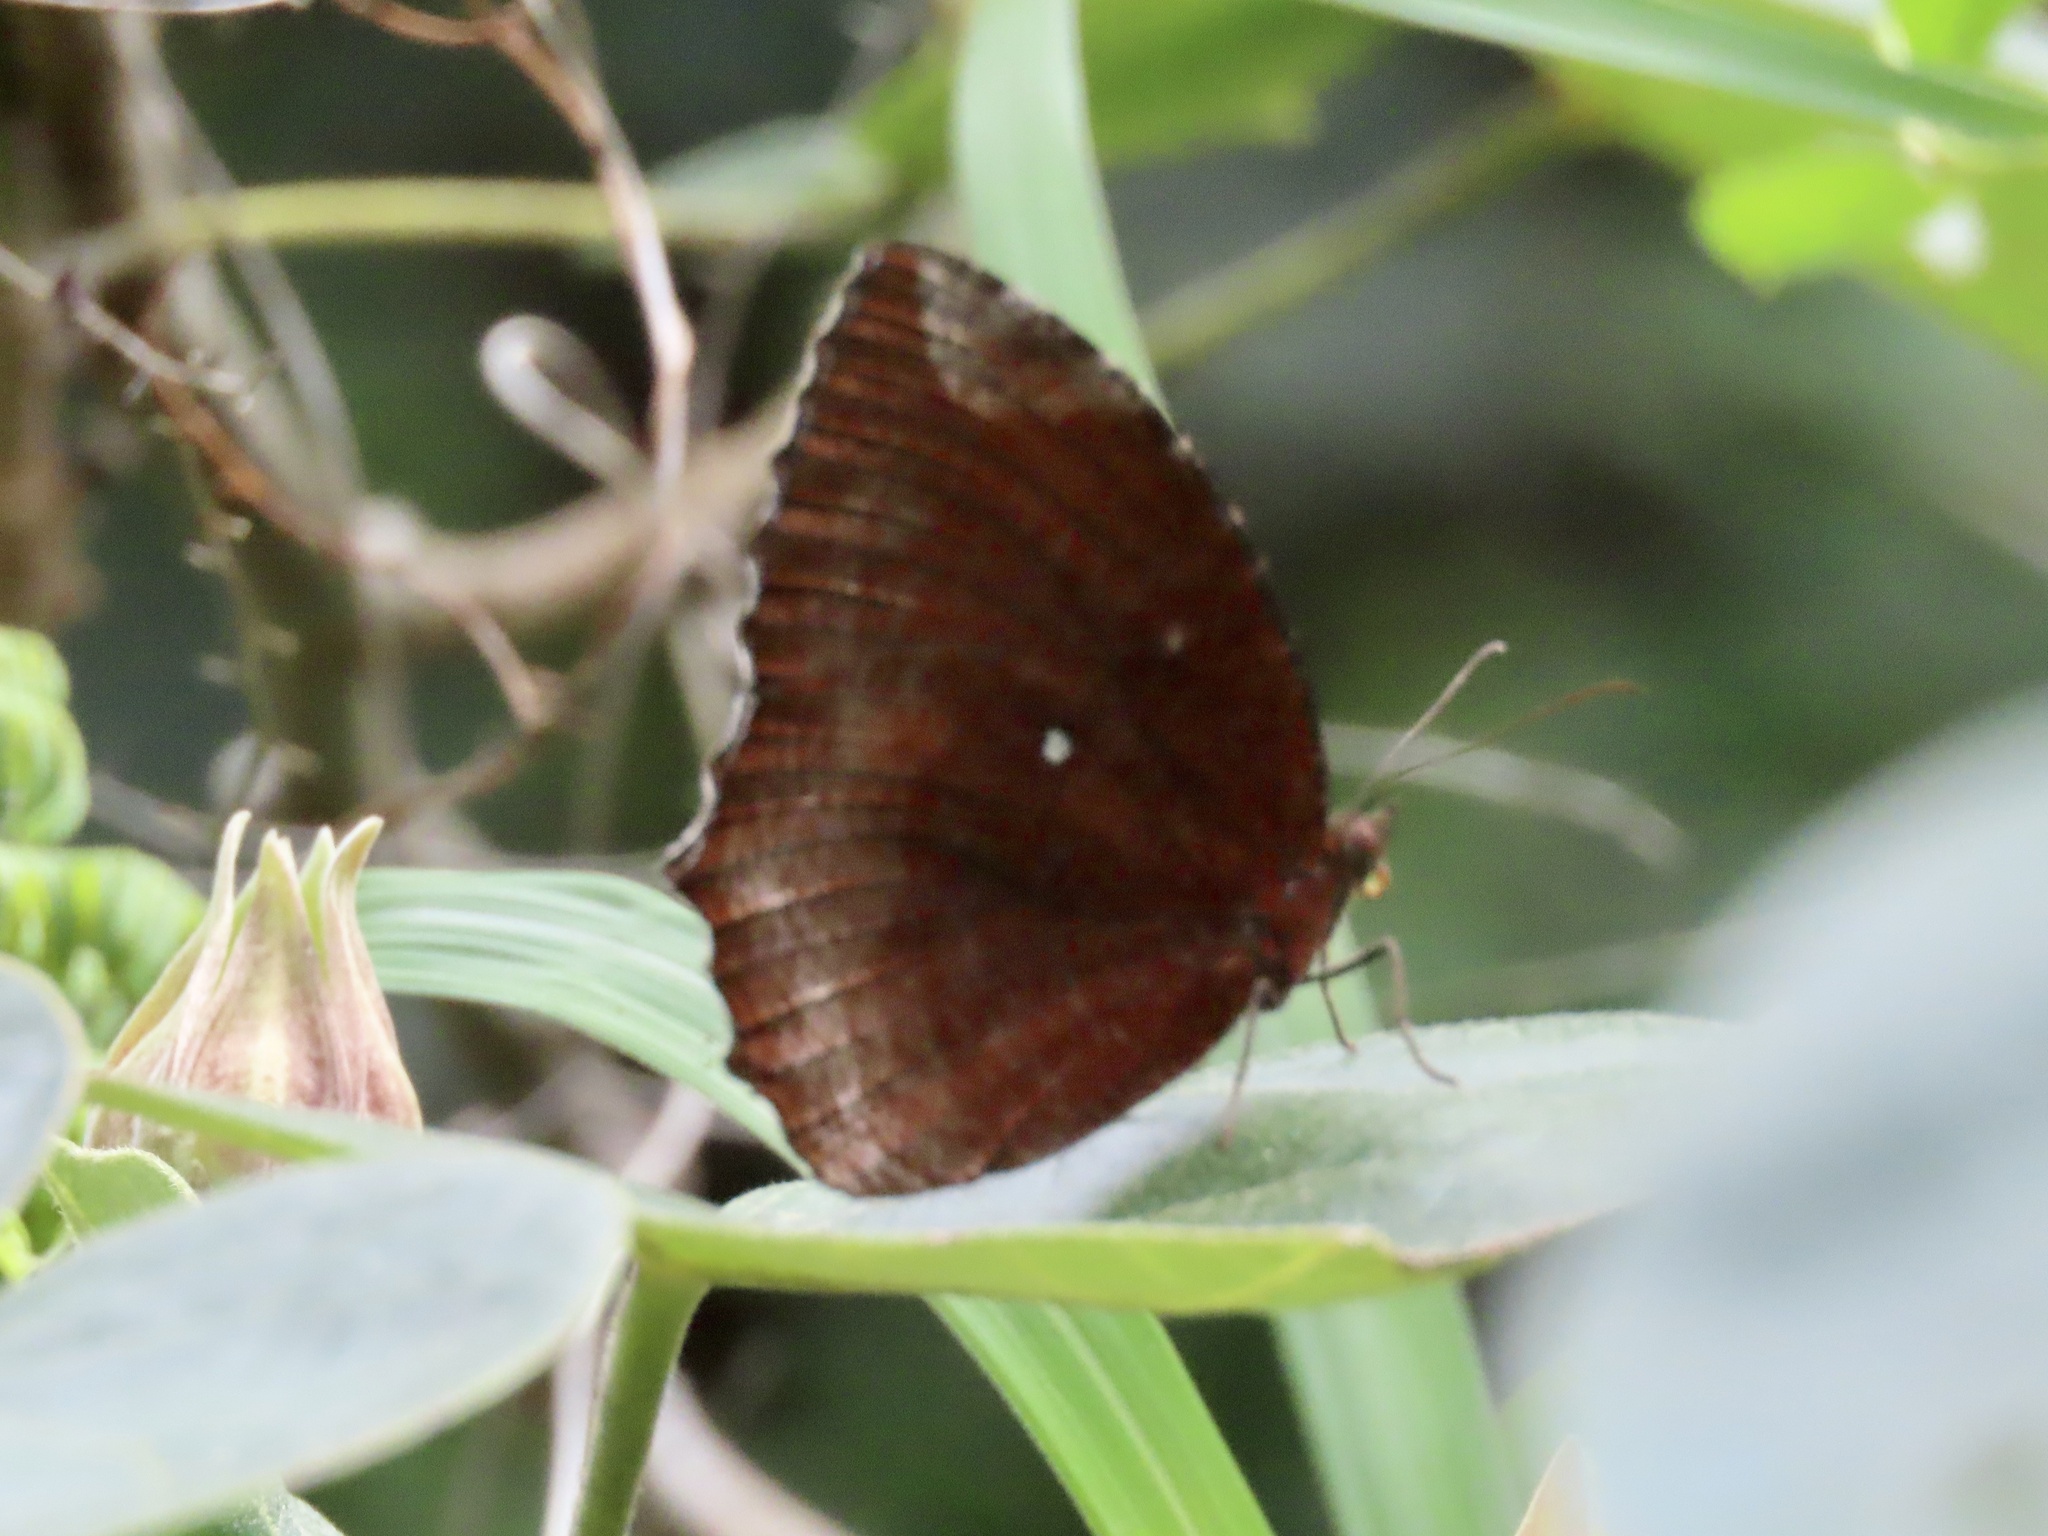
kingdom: Animalia
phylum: Arthropoda
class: Insecta
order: Lepidoptera
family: Nymphalidae
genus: Elymnias
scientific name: Elymnias hypermnestra
